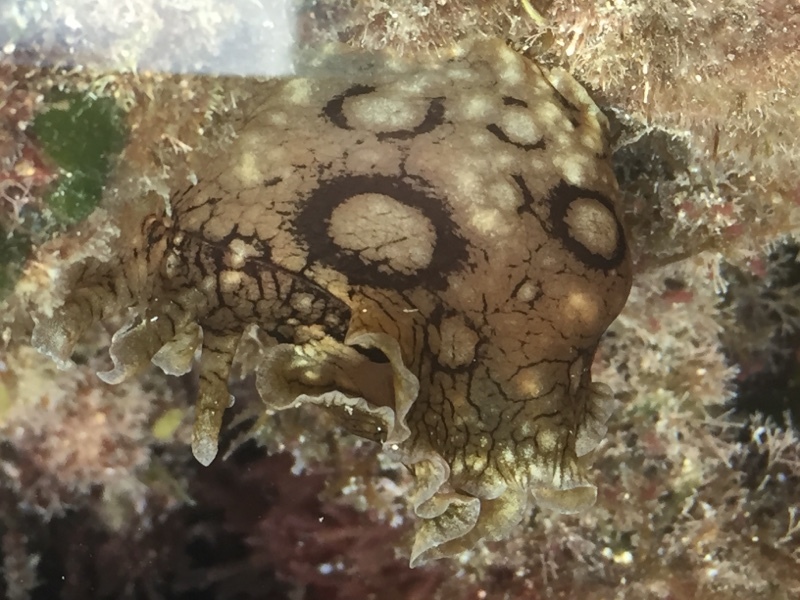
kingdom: Animalia
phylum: Mollusca
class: Gastropoda
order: Aplysiida
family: Aplysiidae
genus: Aplysia
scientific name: Aplysia dactylomela
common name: Large-spotted sea hare
